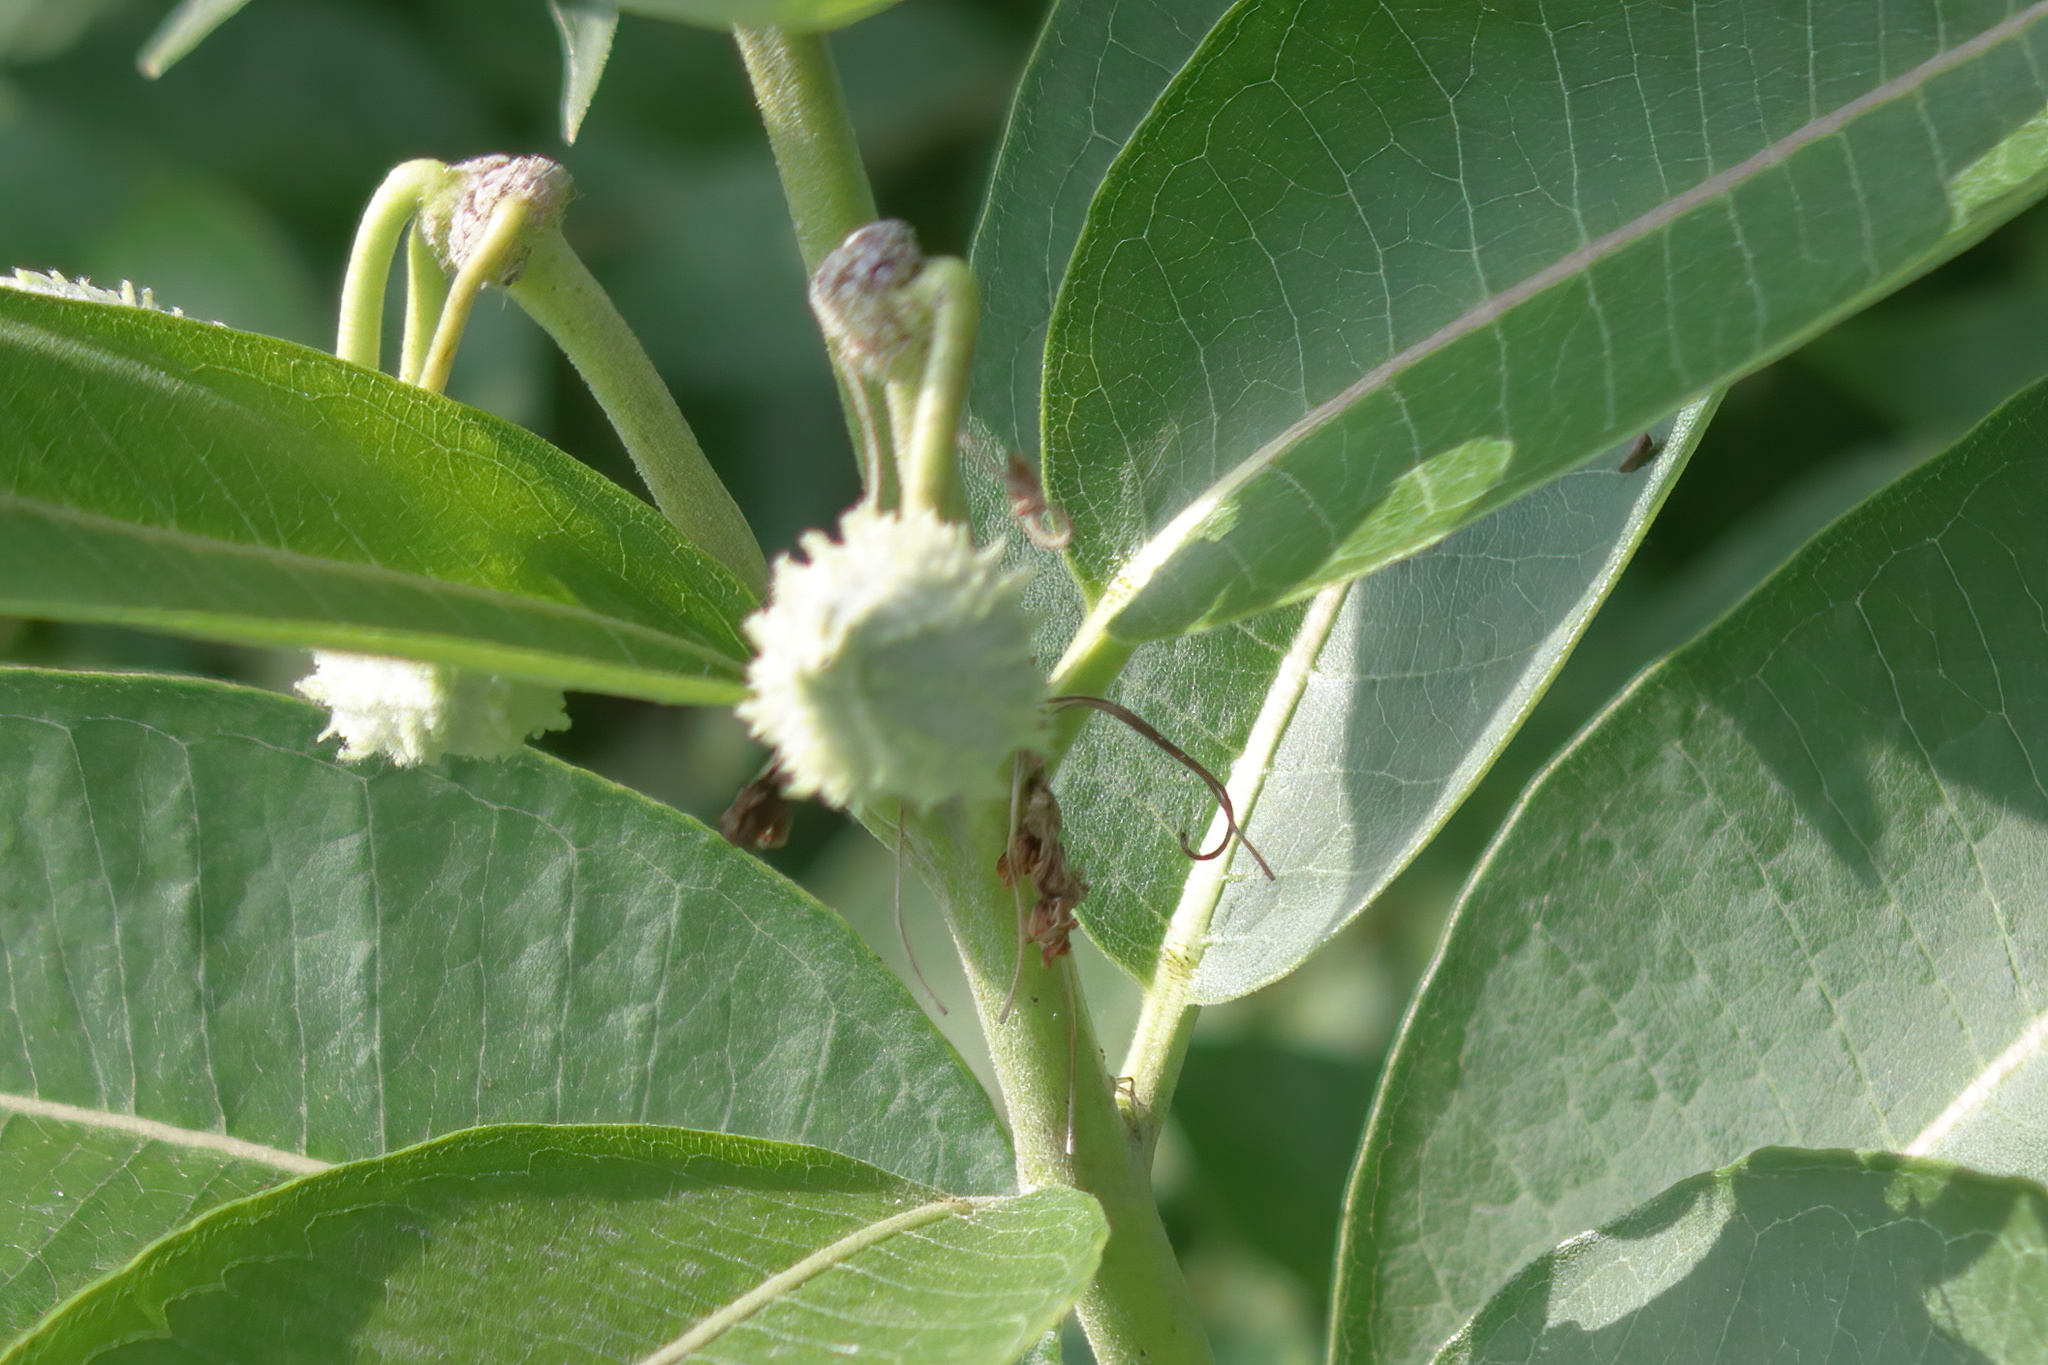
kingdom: Plantae
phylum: Tracheophyta
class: Magnoliopsida
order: Gentianales
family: Apocynaceae
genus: Asclepias
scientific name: Asclepias syriaca
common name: Common milkweed
